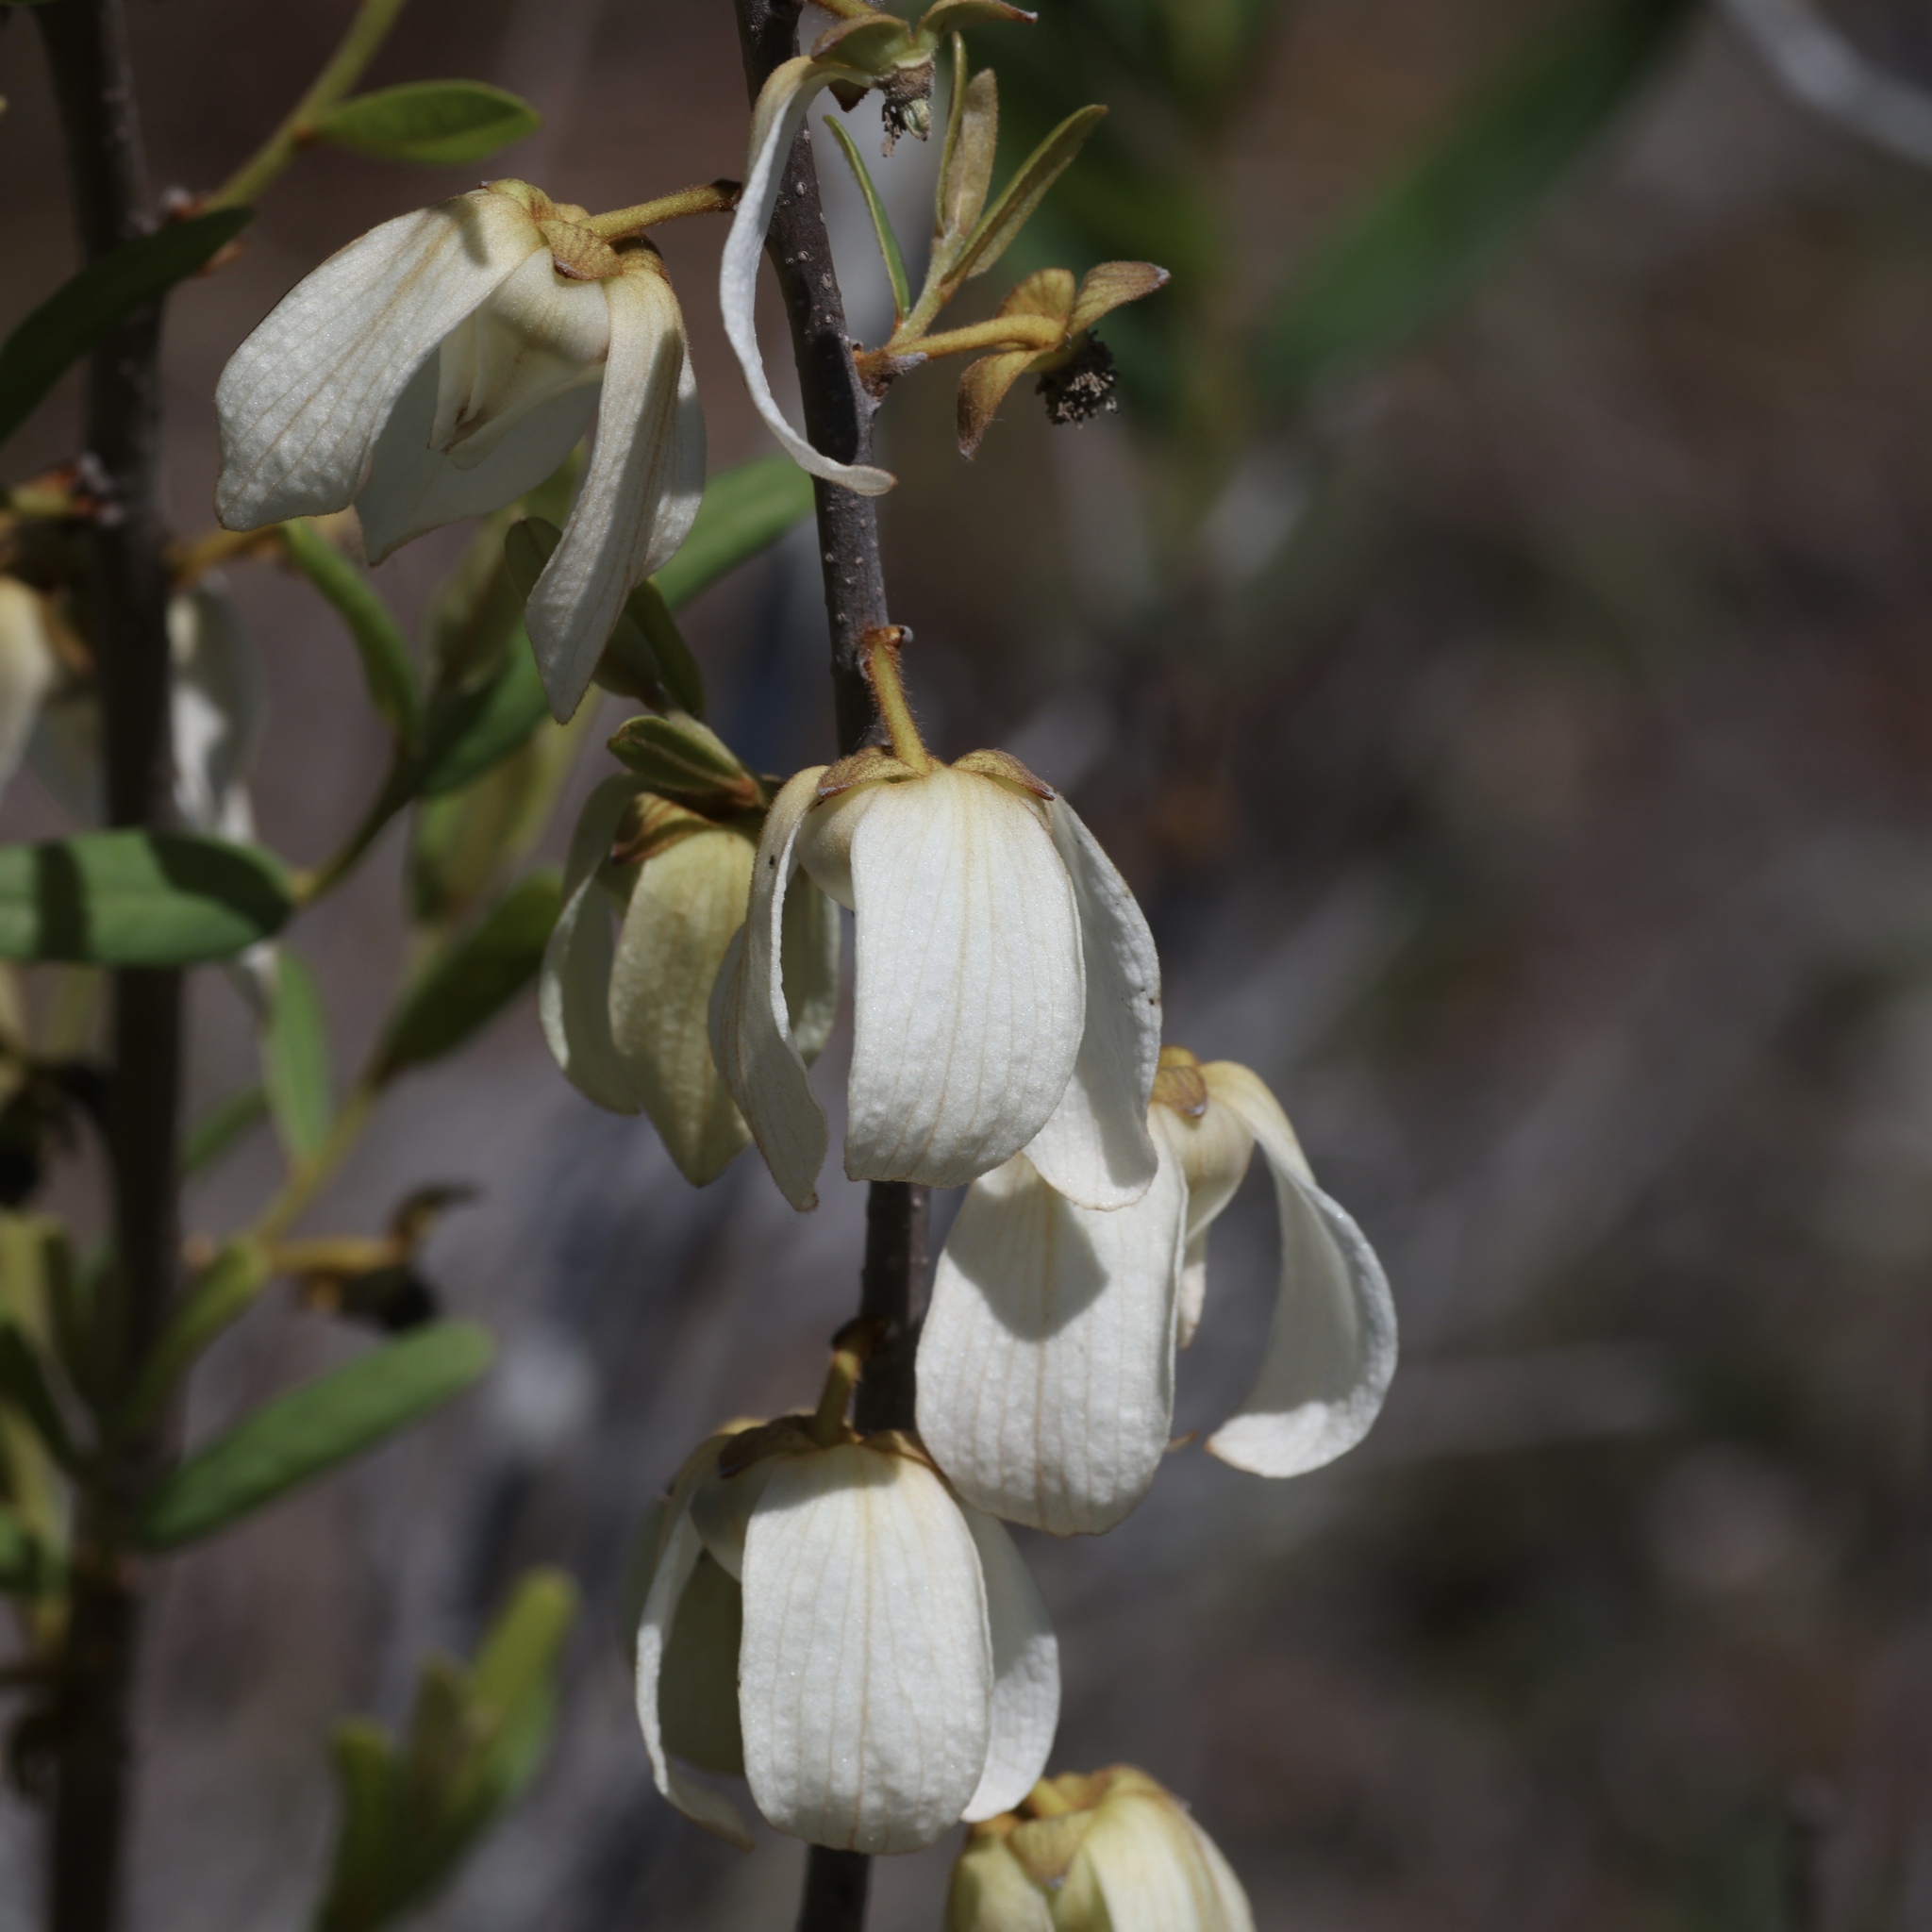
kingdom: Plantae
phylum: Tracheophyta
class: Magnoliopsida
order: Magnoliales
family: Annonaceae
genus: Asimina
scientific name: Asimina reticulata
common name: Flag pawpaw
